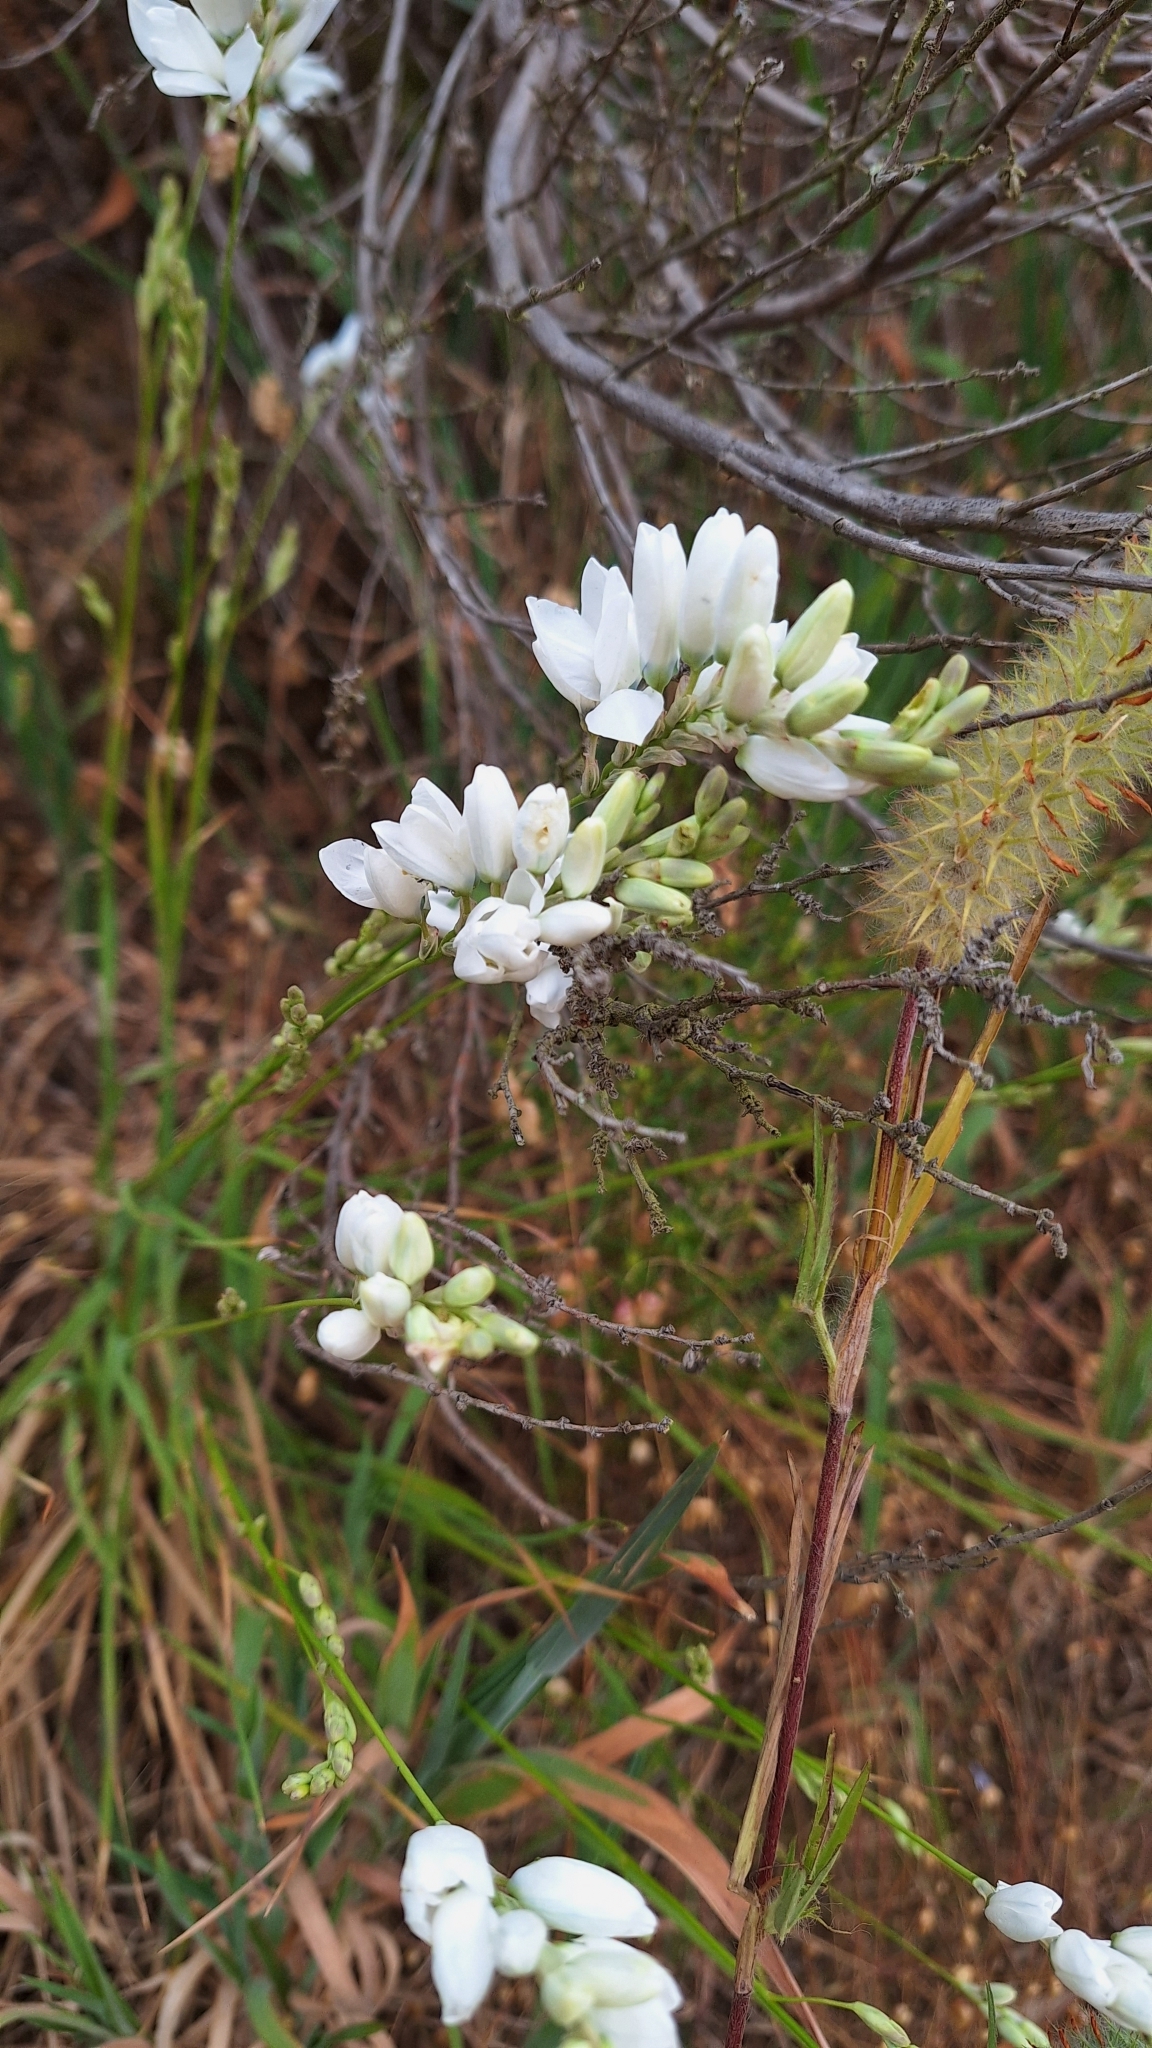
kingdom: Plantae
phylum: Tracheophyta
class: Liliopsida
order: Asparagales
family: Iridaceae
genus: Ixia
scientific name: Ixia polystachya
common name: White-and-yellow-flower cornlily
